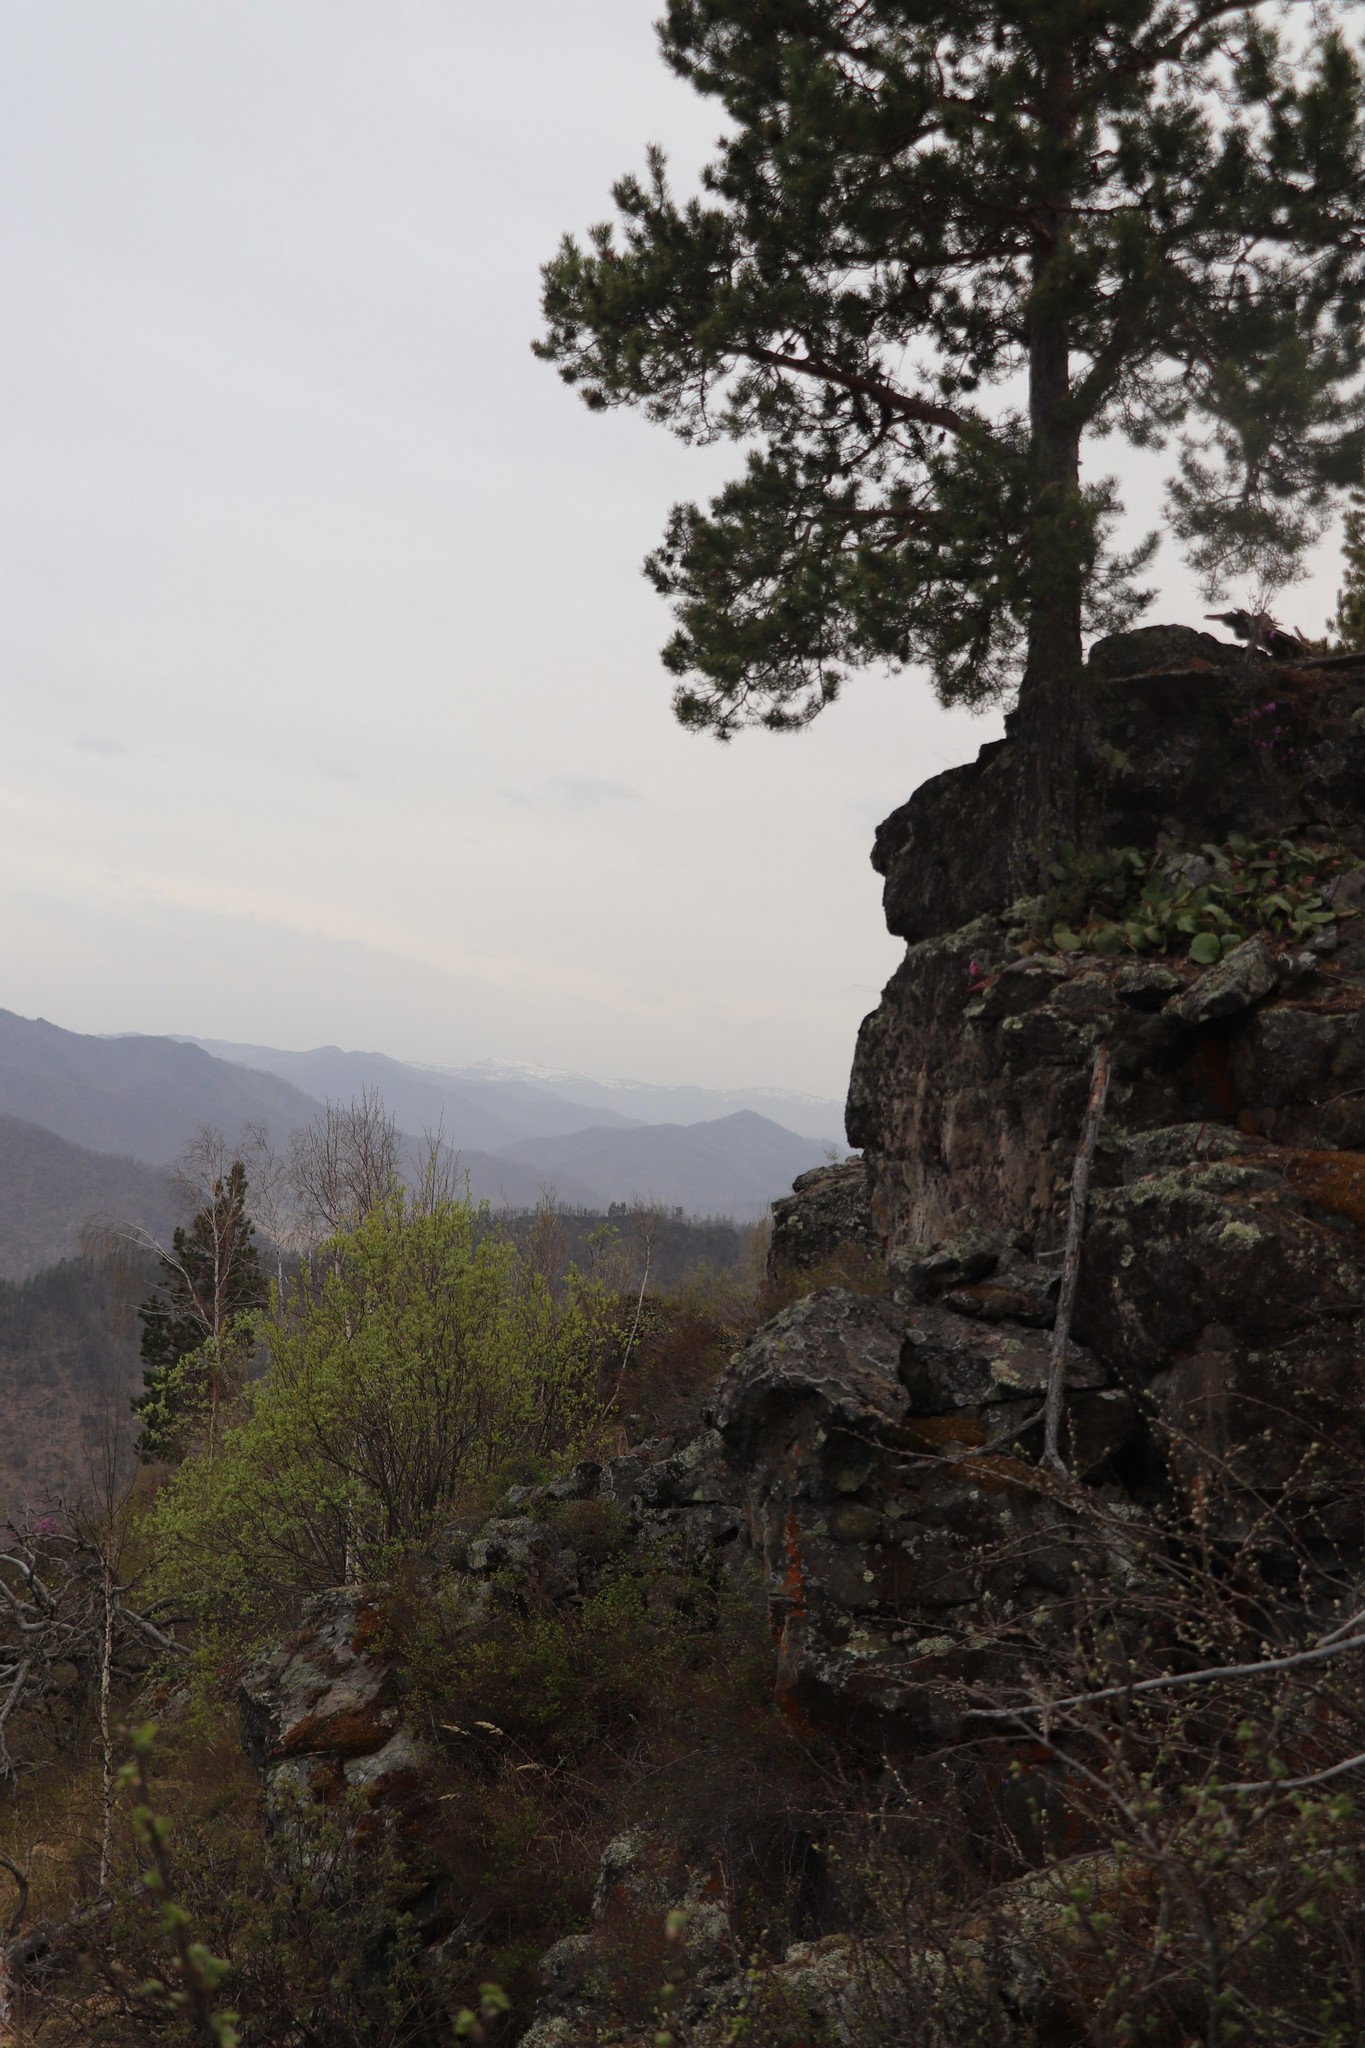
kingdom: Plantae
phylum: Tracheophyta
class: Pinopsida
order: Pinales
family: Pinaceae
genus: Pinus
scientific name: Pinus sylvestris
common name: Scots pine
